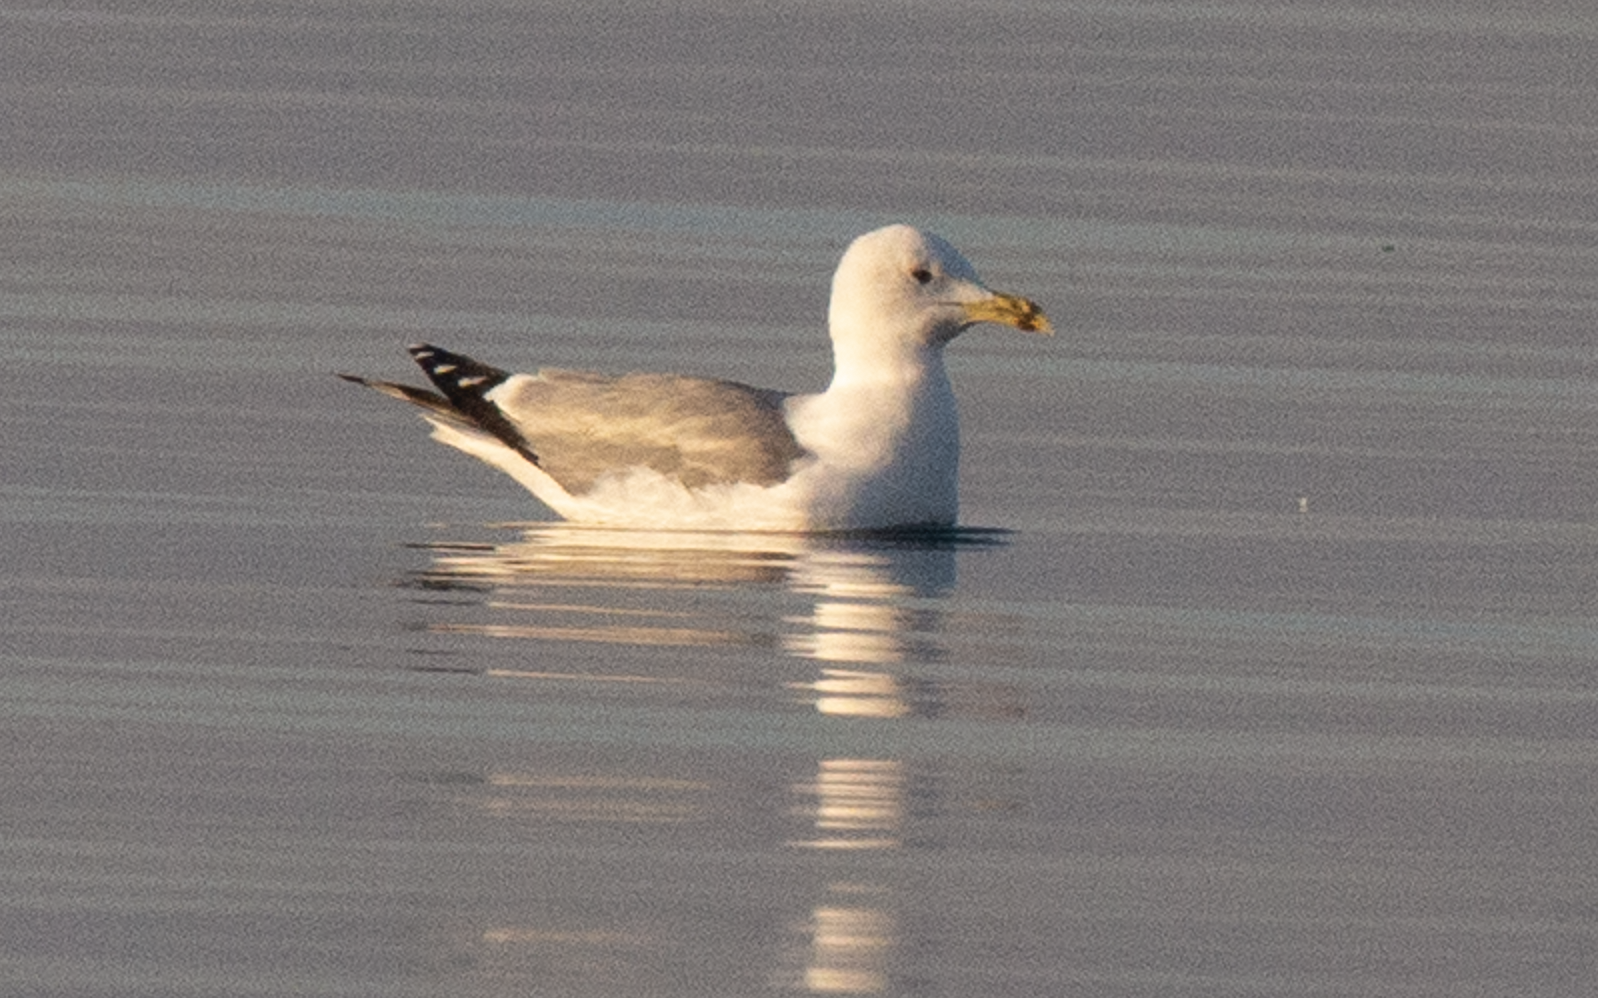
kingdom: Animalia
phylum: Chordata
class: Aves
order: Charadriiformes
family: Laridae
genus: Larus
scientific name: Larus cachinnans
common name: Caspian gull
